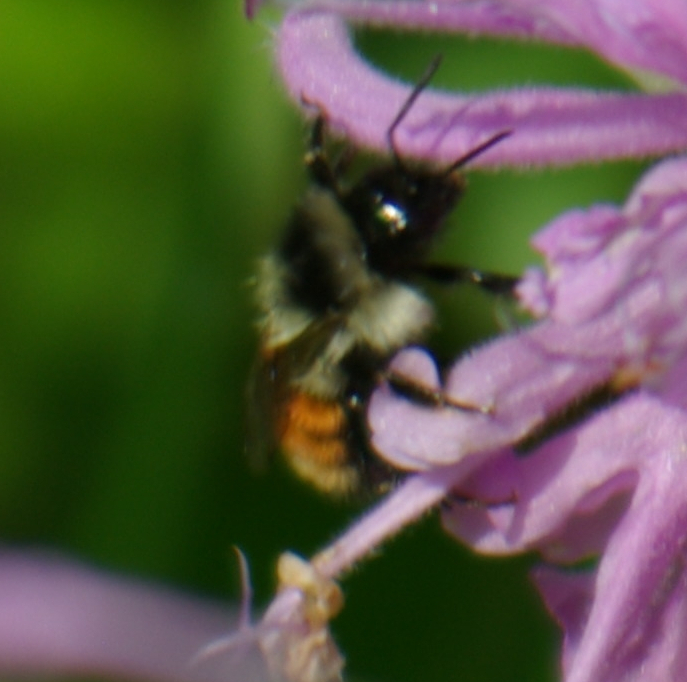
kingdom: Animalia
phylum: Arthropoda
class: Insecta
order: Hymenoptera
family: Apidae
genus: Bombus
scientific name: Bombus ternarius
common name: Tri-colored bumble bee
